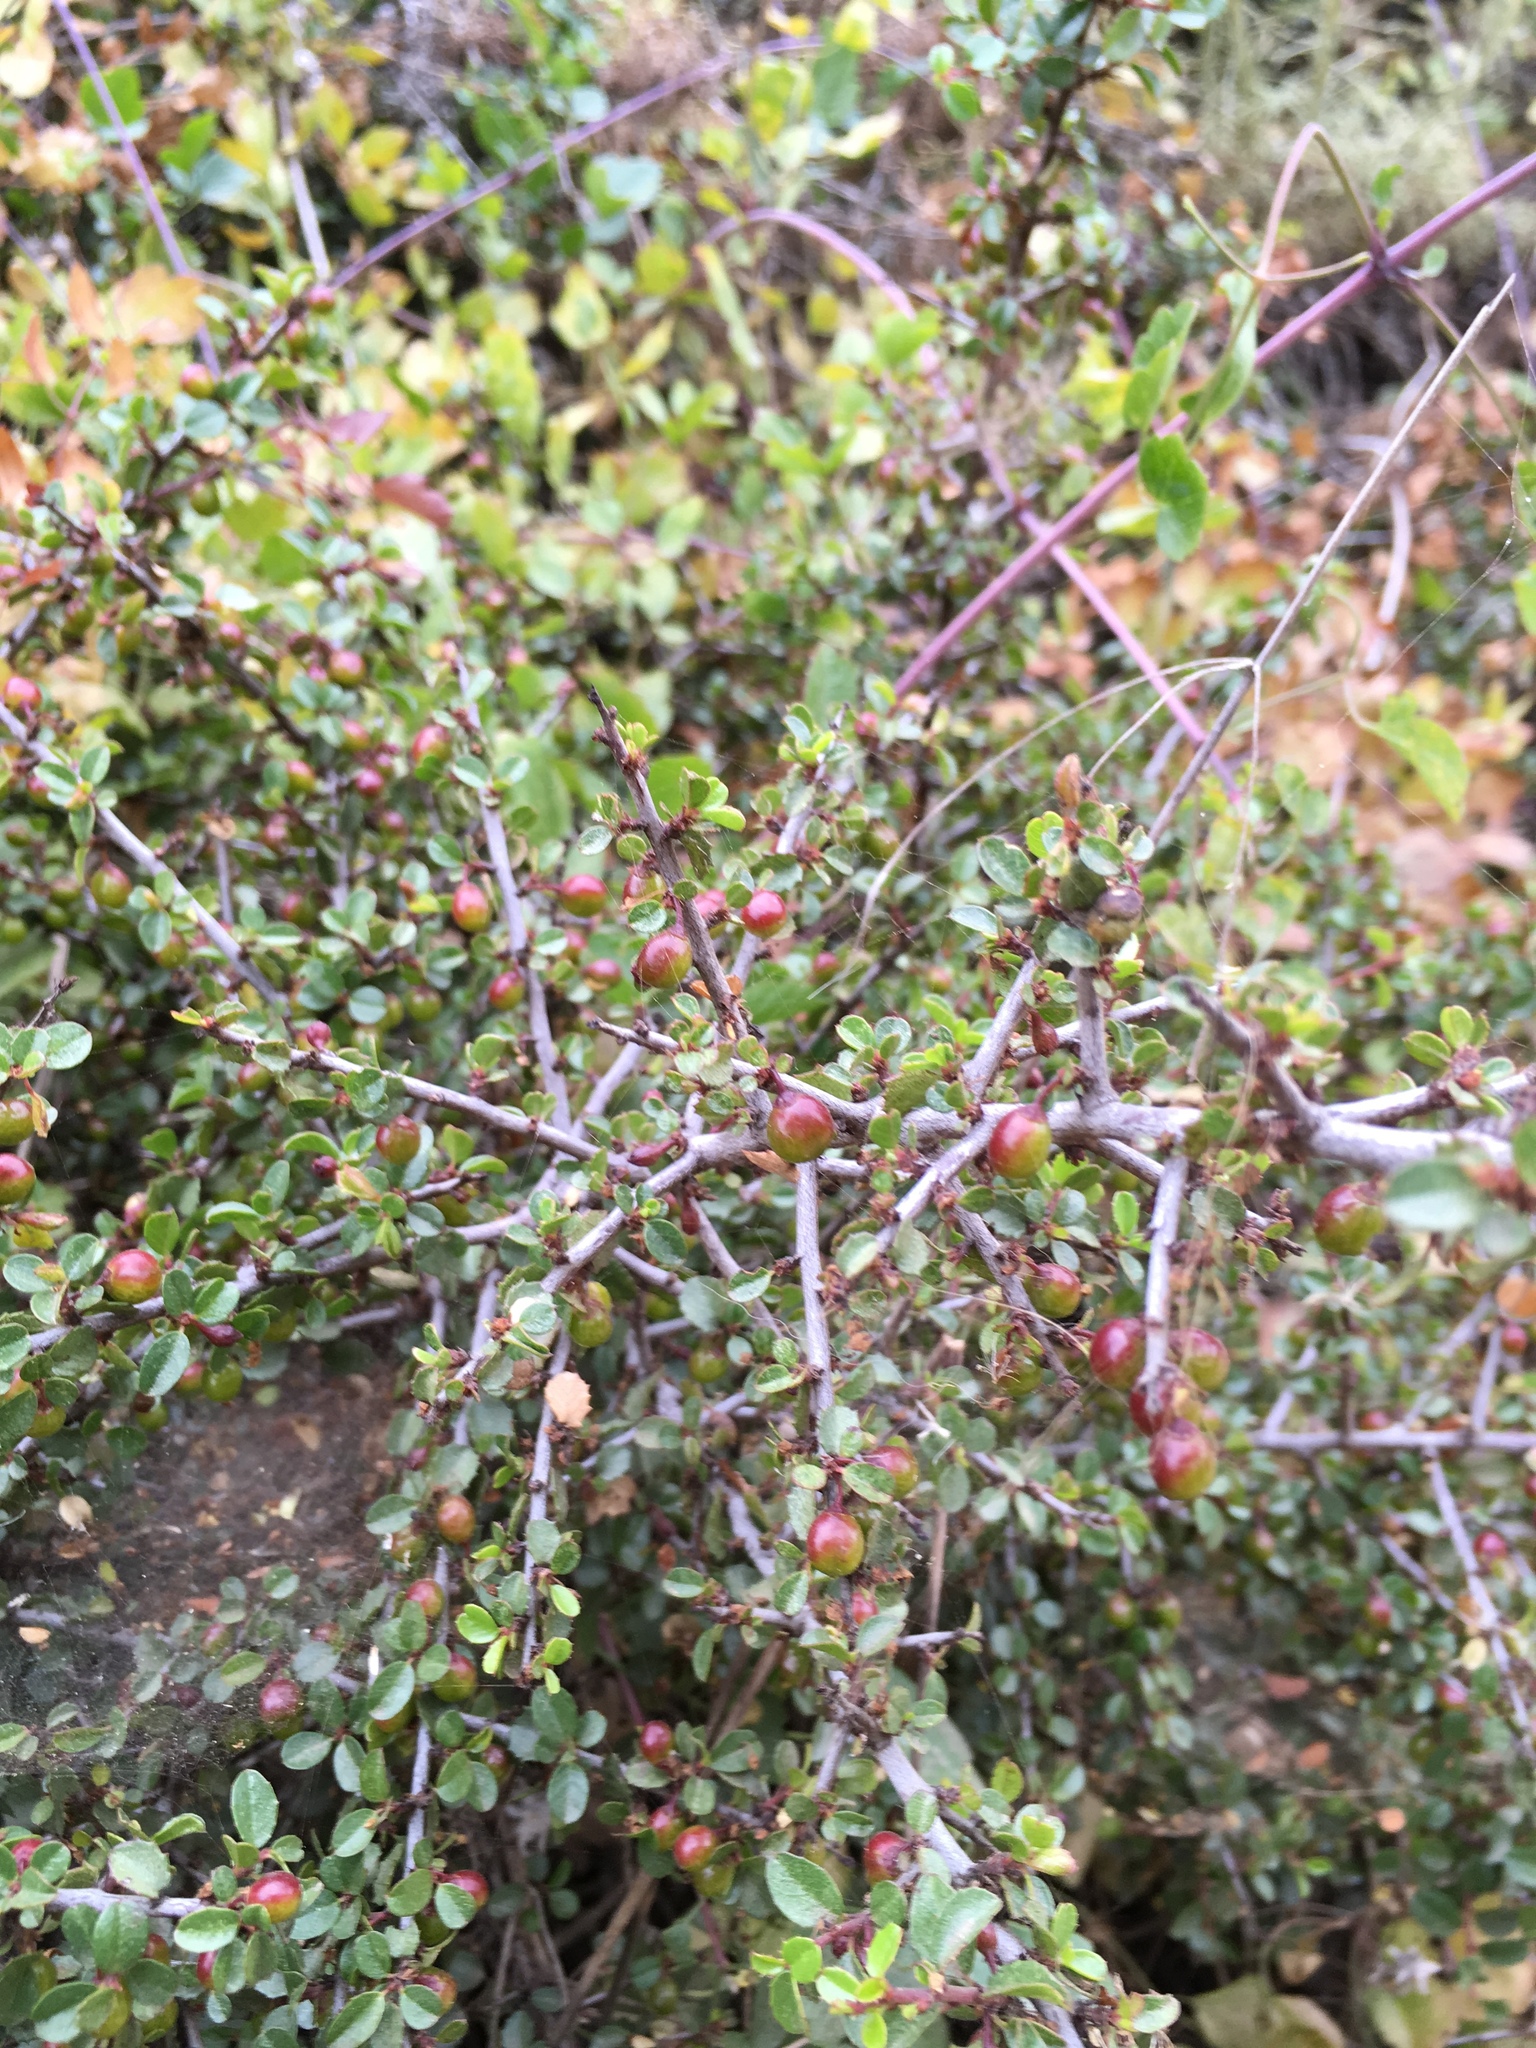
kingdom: Plantae
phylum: Tracheophyta
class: Magnoliopsida
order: Rosales
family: Rhamnaceae
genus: Endotropis
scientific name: Endotropis crocea
